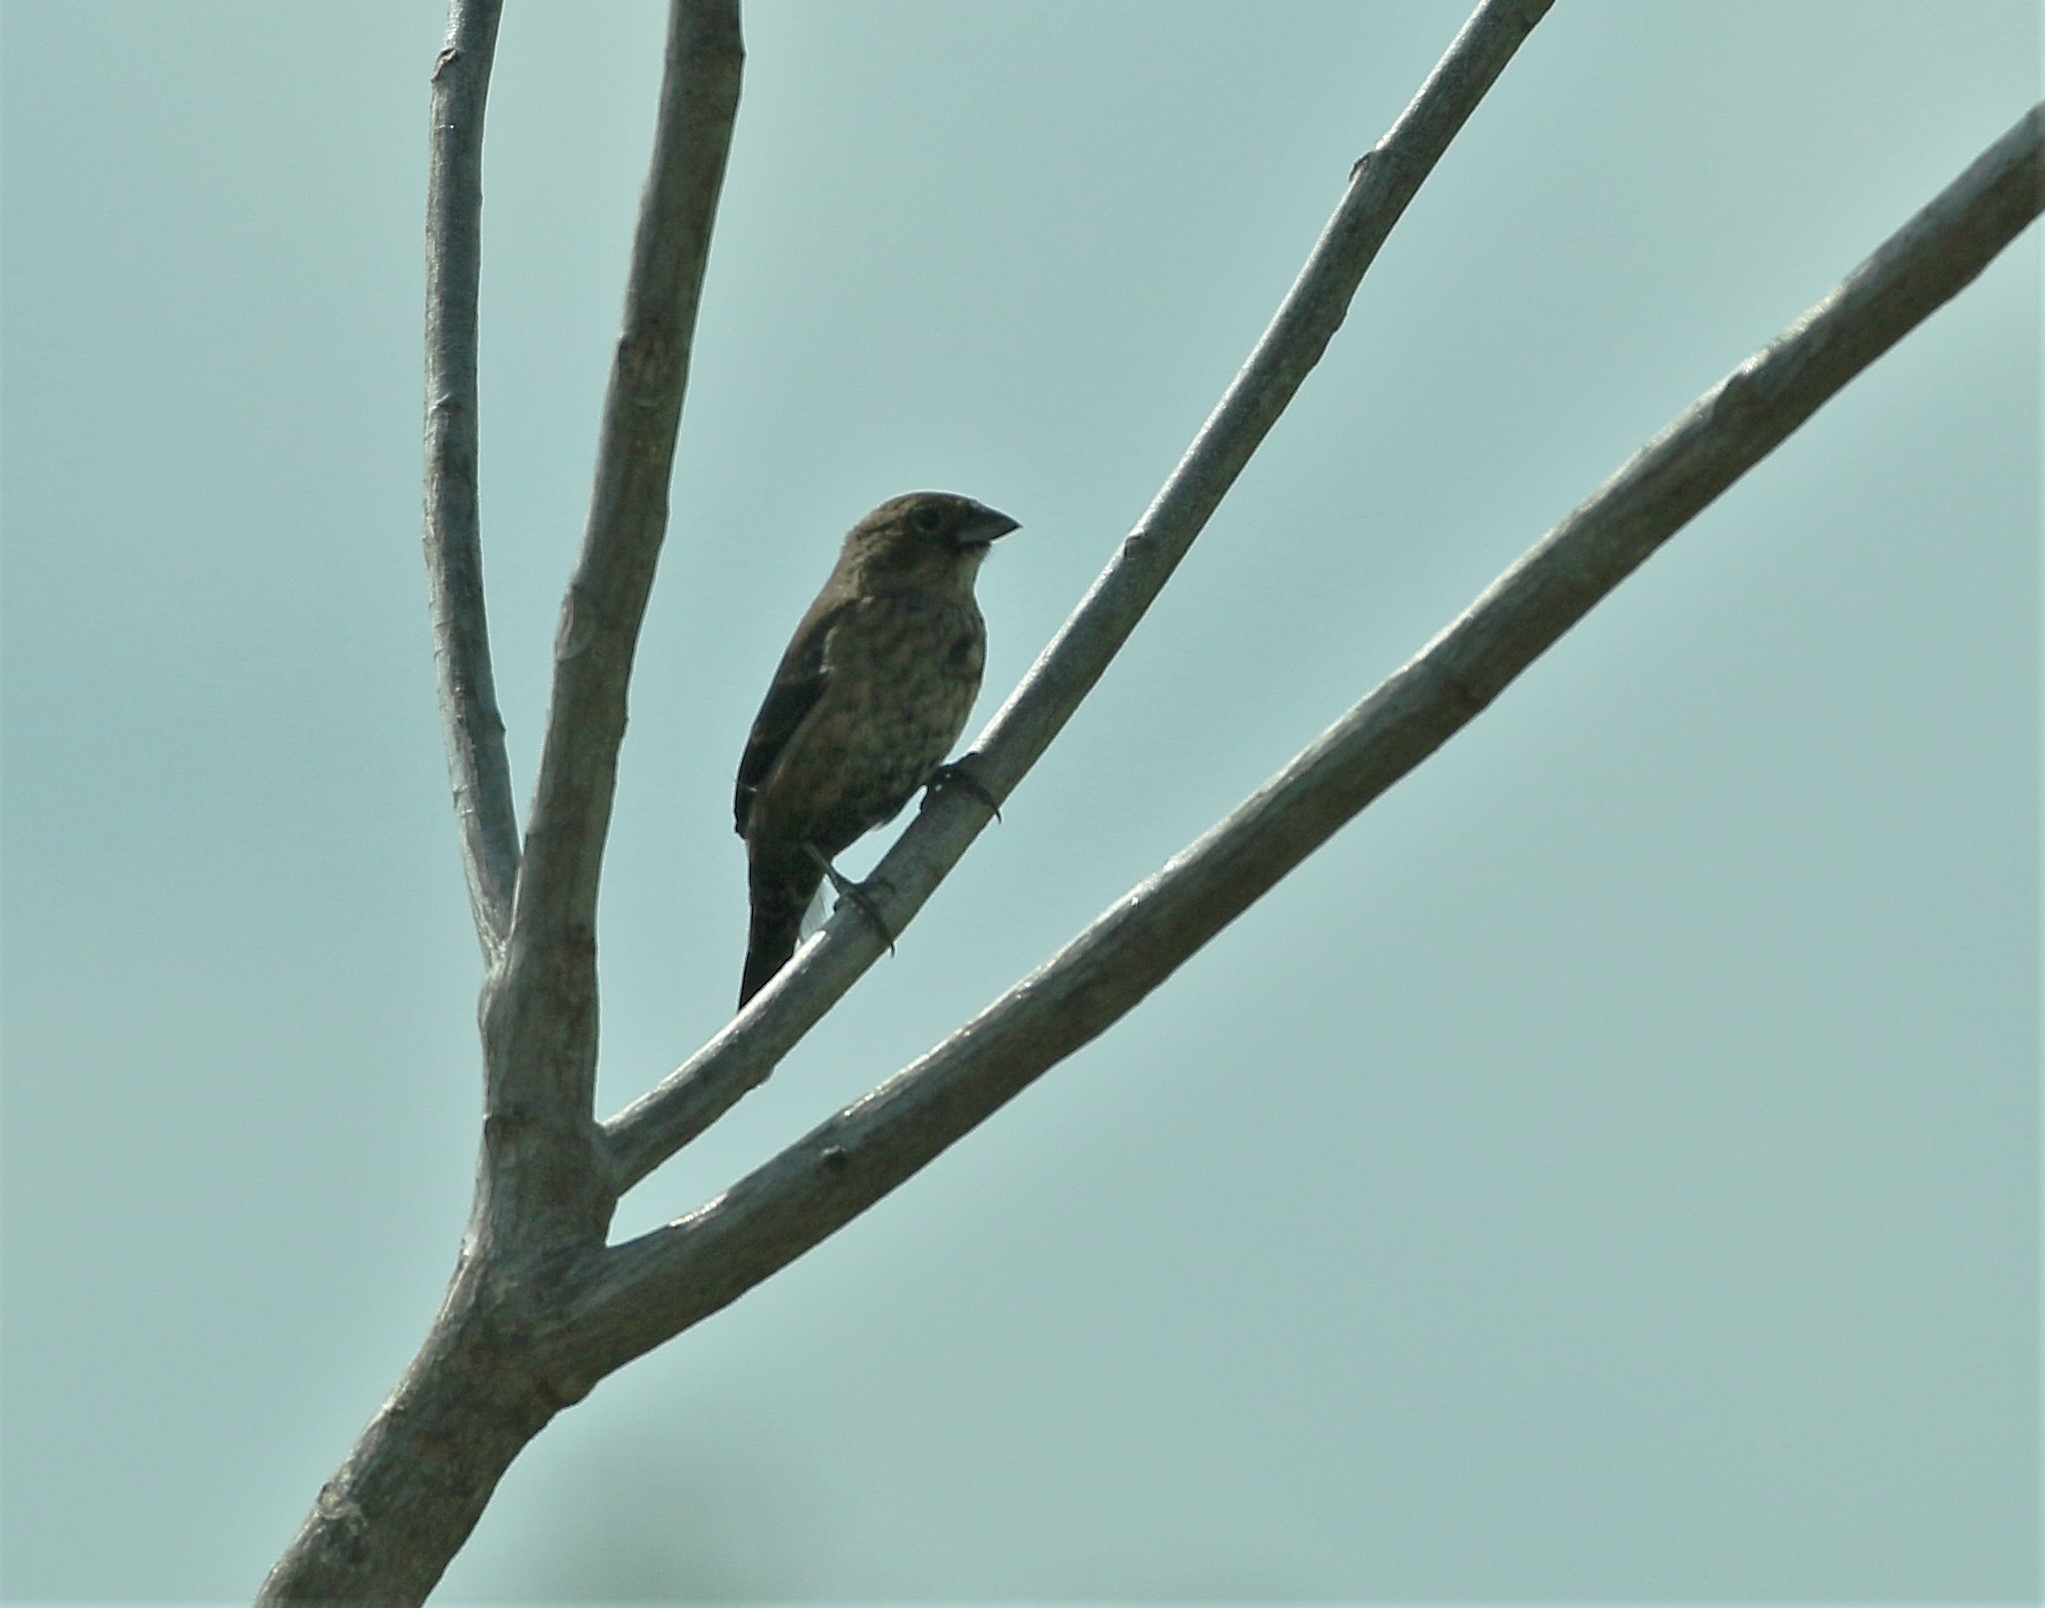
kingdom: Animalia
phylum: Chordata
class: Aves
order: Passeriformes
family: Thraupidae
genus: Volatinia
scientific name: Volatinia jacarina
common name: Blue-black grassquit
